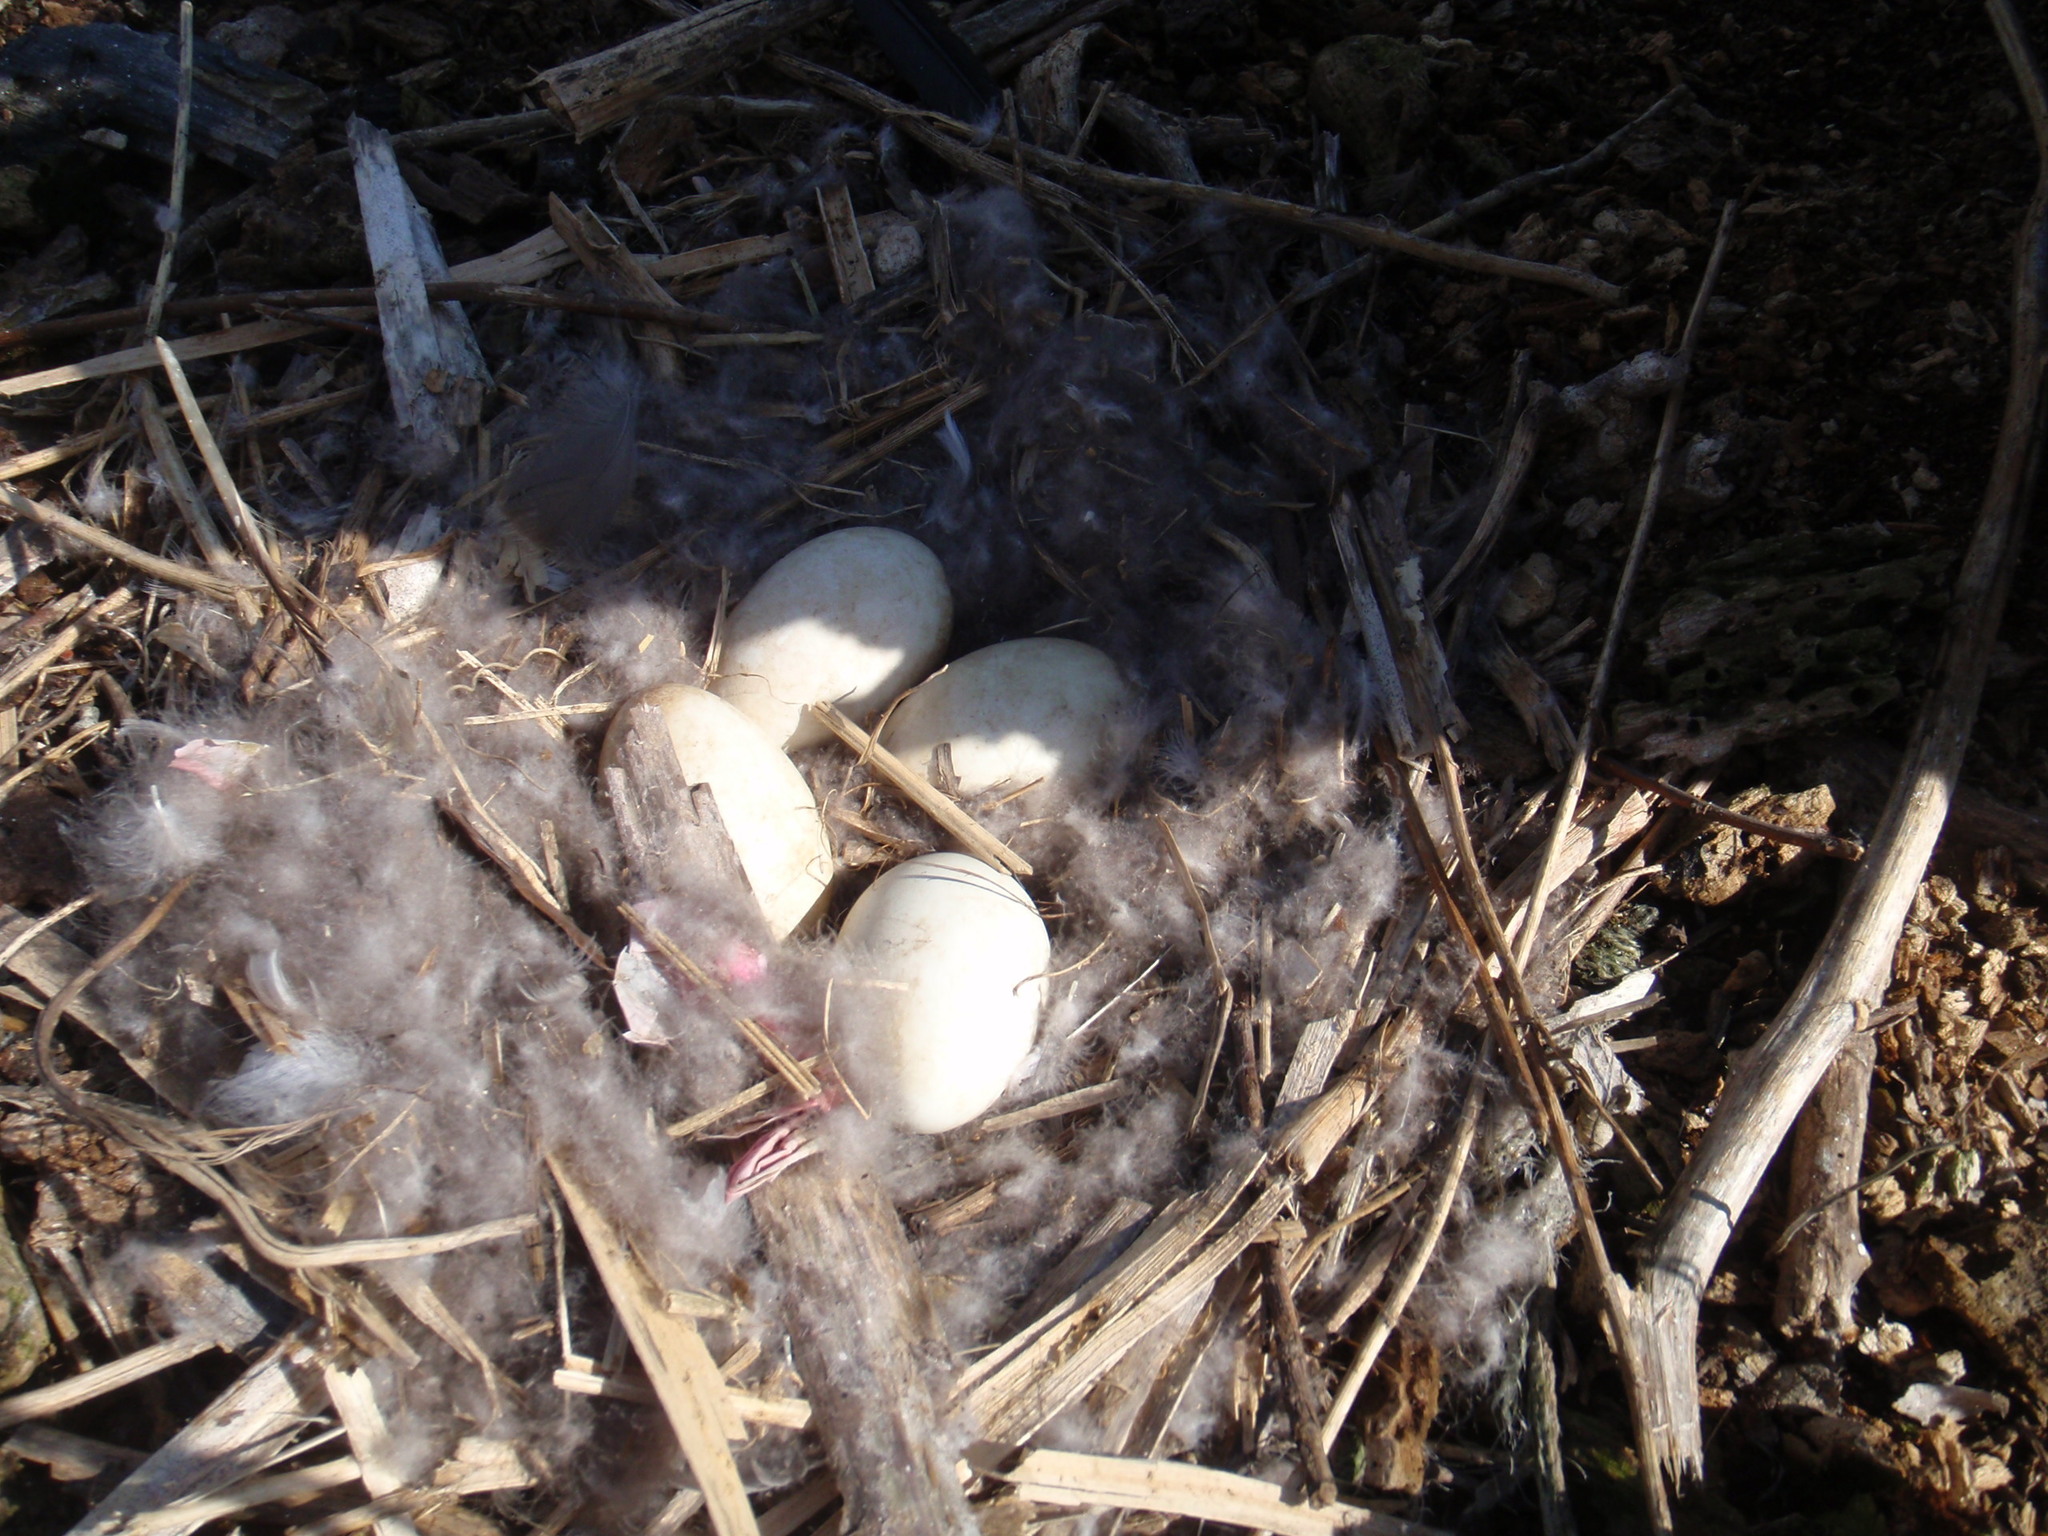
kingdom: Animalia
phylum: Chordata
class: Aves
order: Anseriformes
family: Anatidae
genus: Branta
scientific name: Branta canadensis
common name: Canada goose
